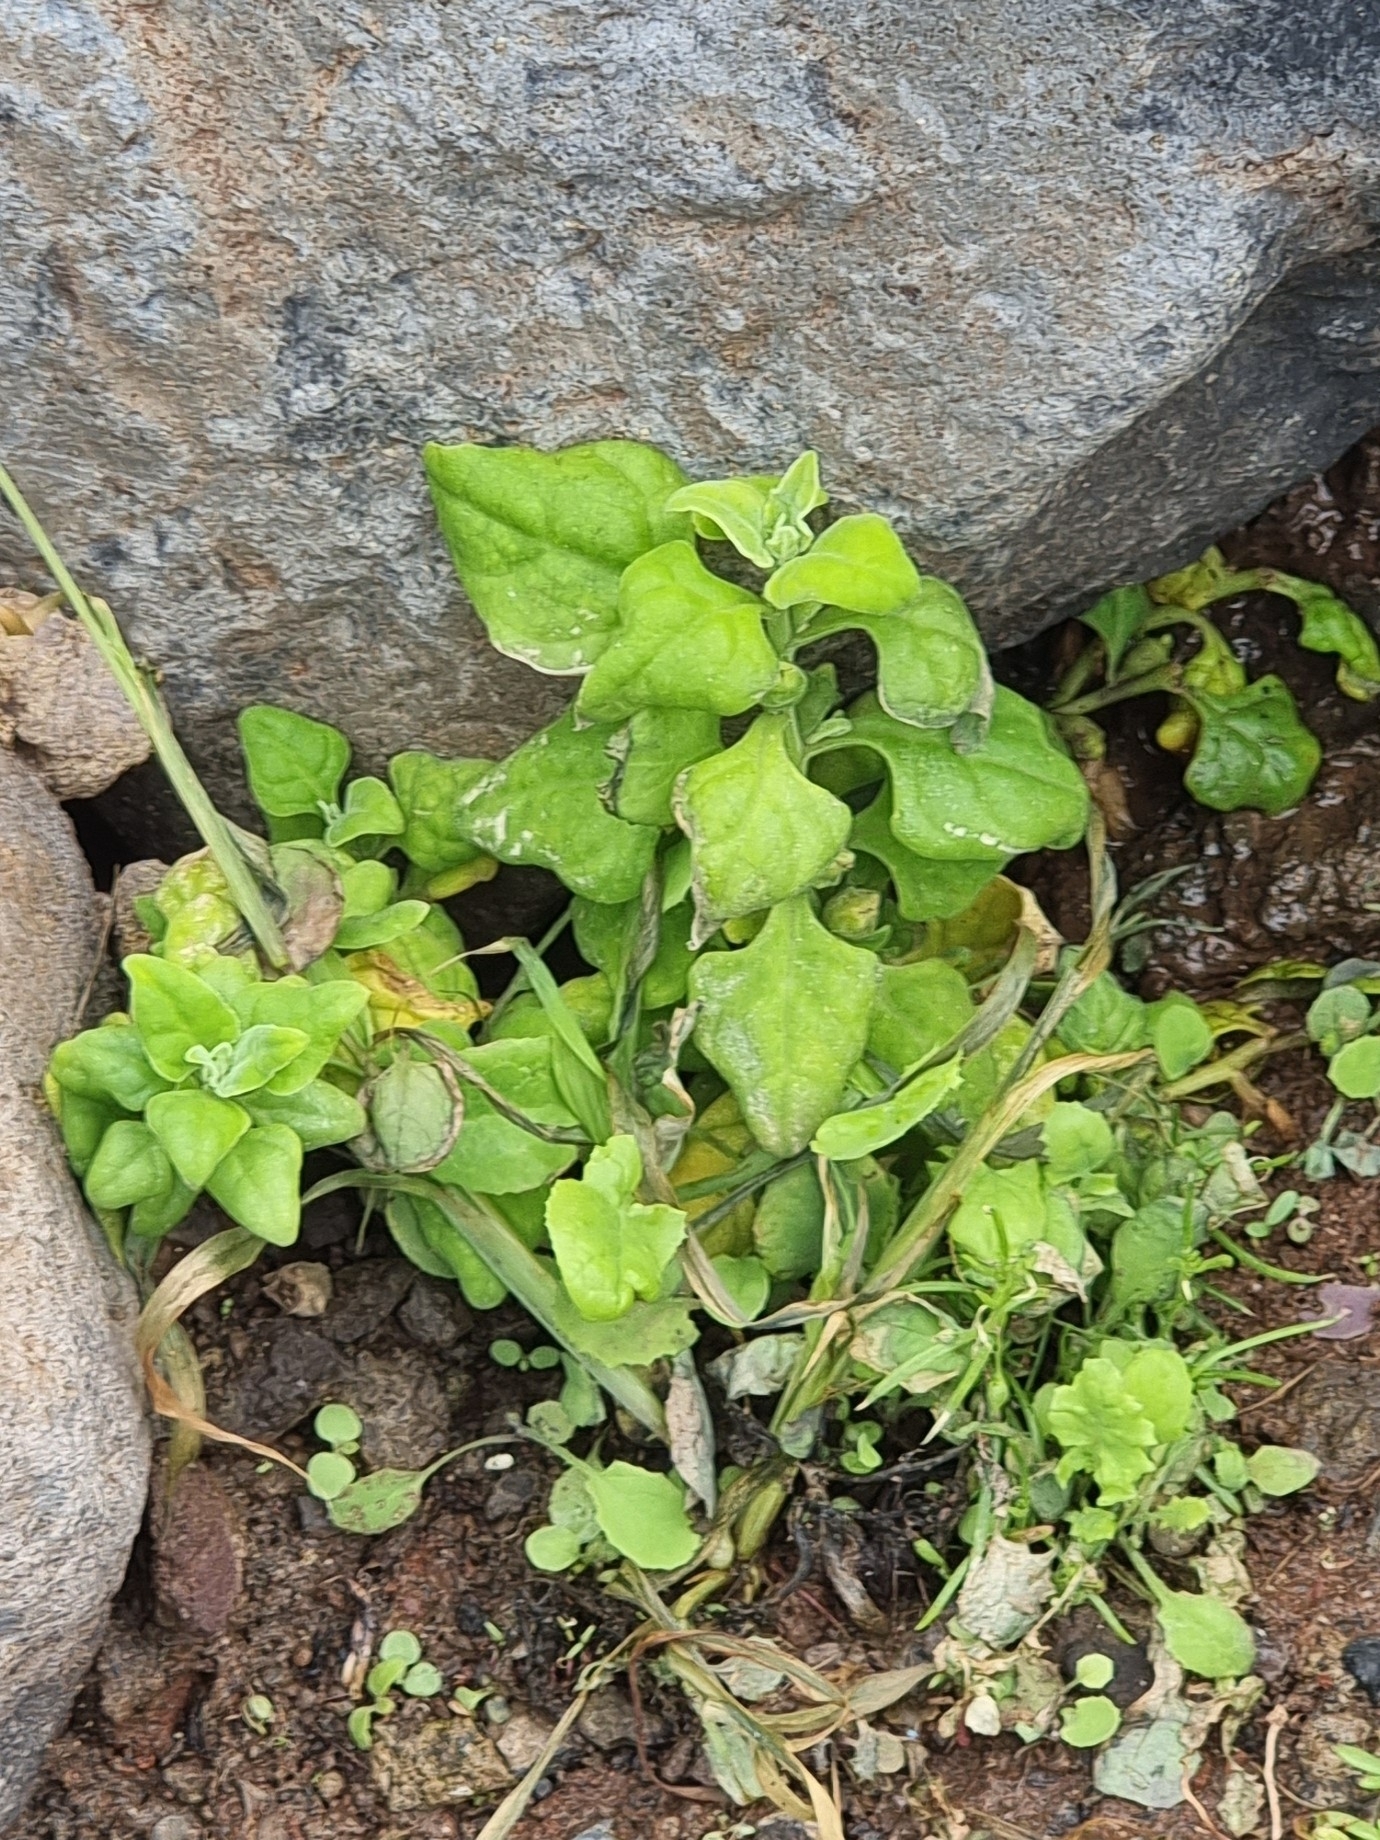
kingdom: Plantae
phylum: Tracheophyta
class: Magnoliopsida
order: Caryophyllales
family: Aizoaceae
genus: Tetragonia
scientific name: Tetragonia tetragonoides
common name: New zealand-spinach
